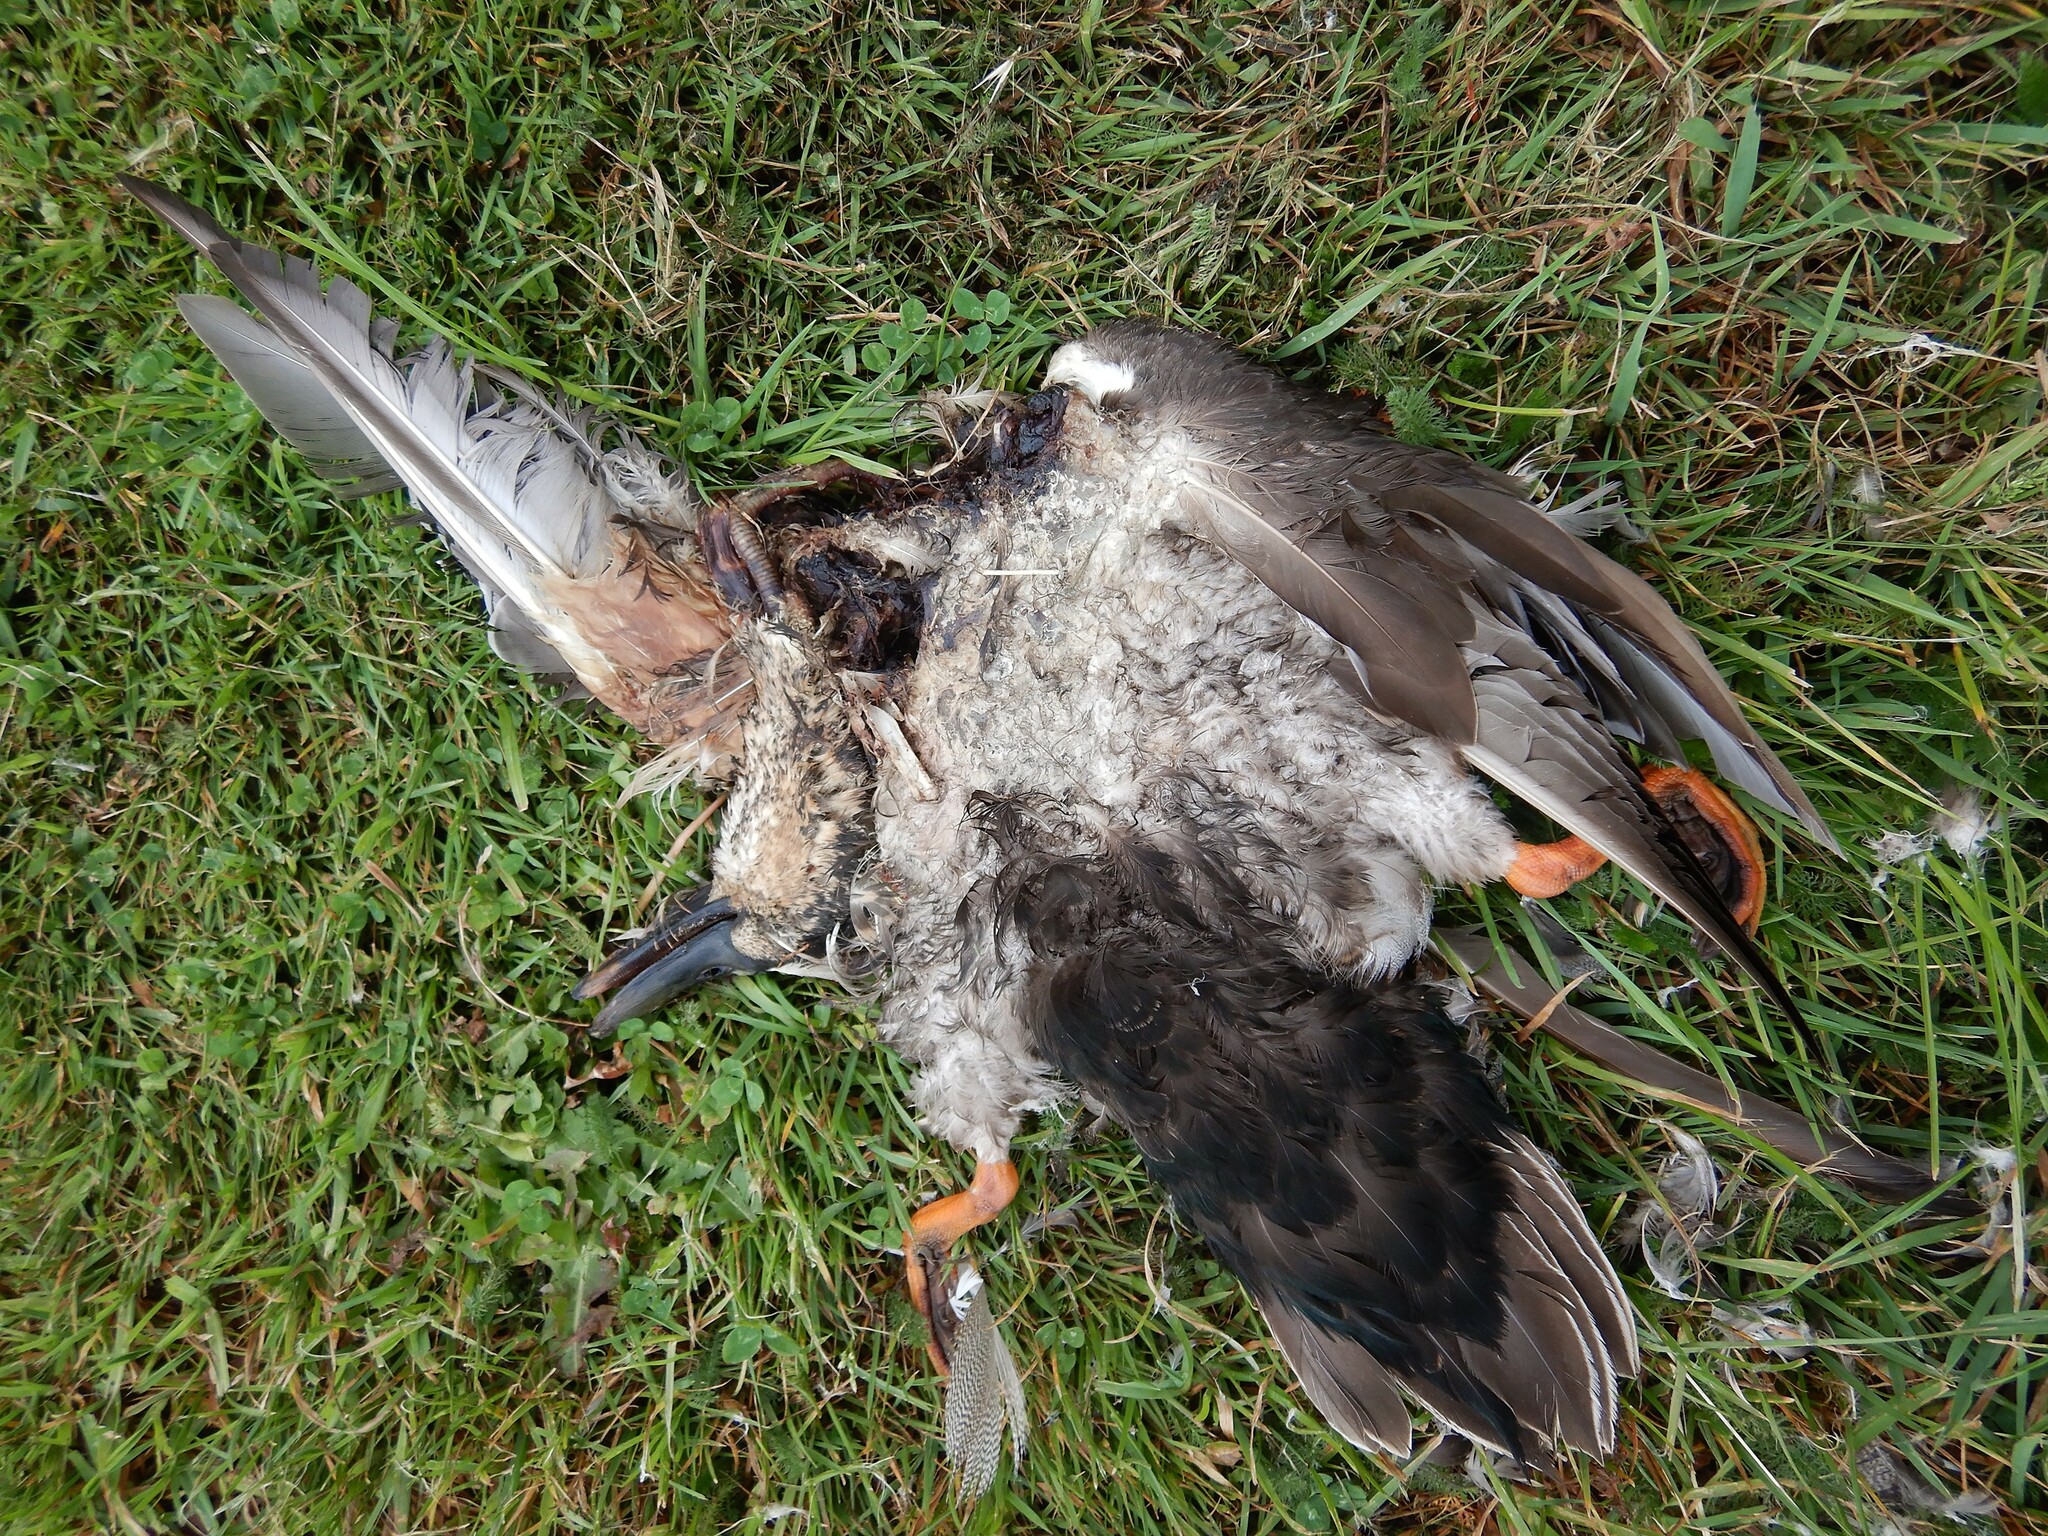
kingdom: Animalia
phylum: Chordata
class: Aves
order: Anseriformes
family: Anatidae
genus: Anas
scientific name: Anas
